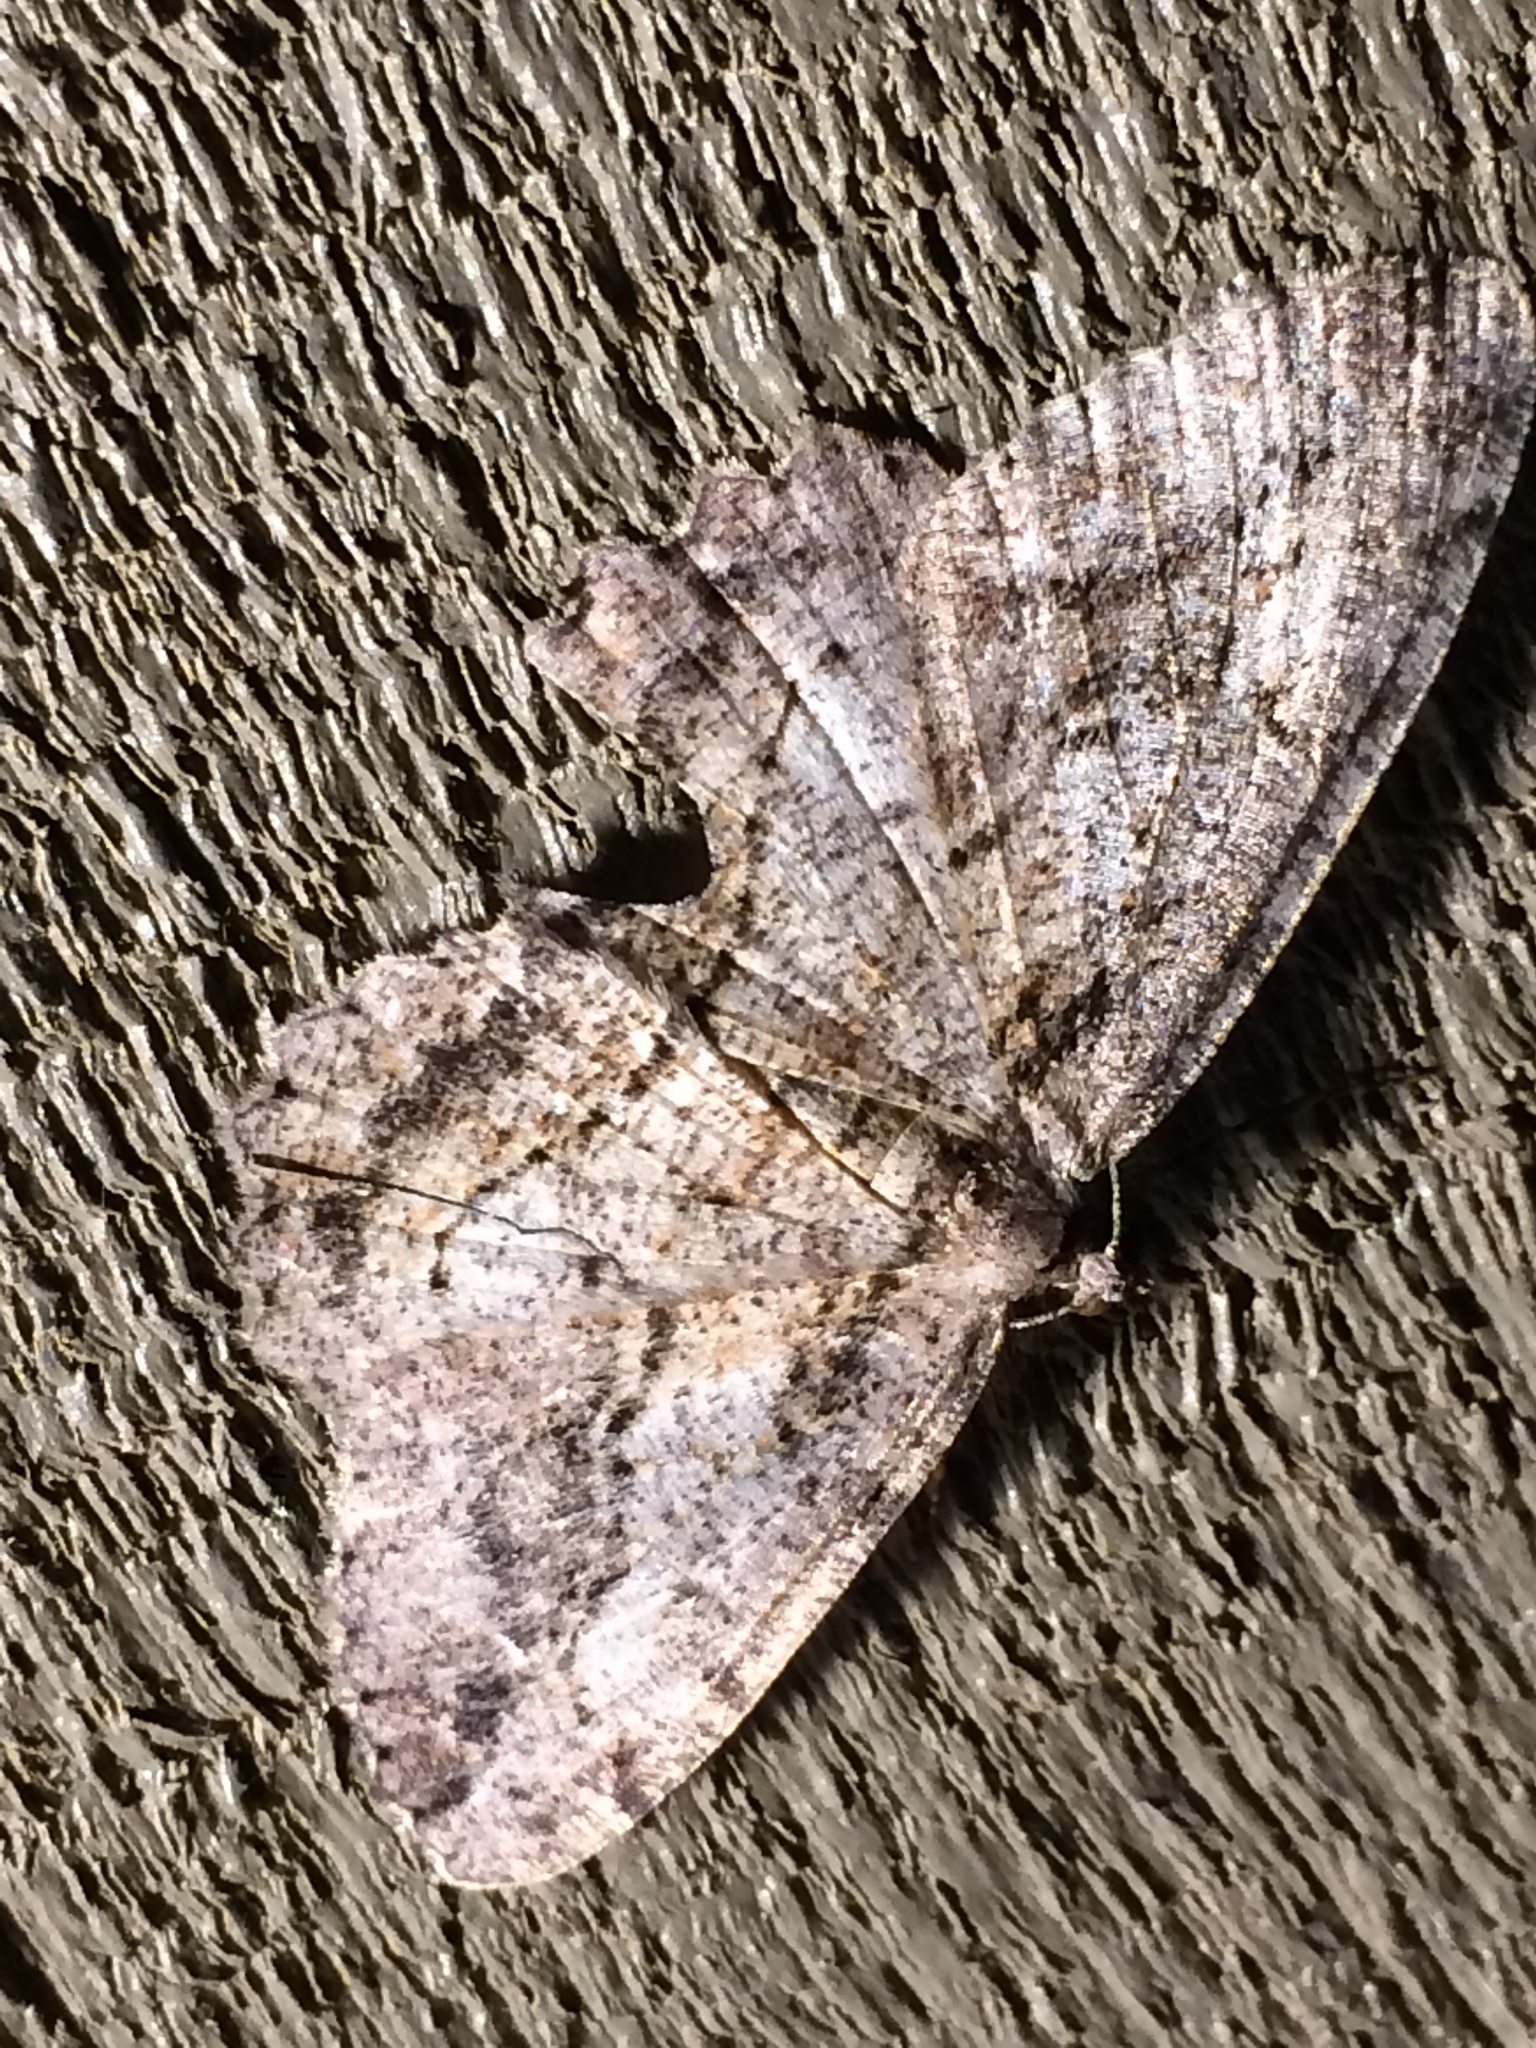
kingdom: Animalia
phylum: Arthropoda
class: Insecta
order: Lepidoptera
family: Geometridae
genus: Neoalcis
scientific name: Neoalcis californiaria
